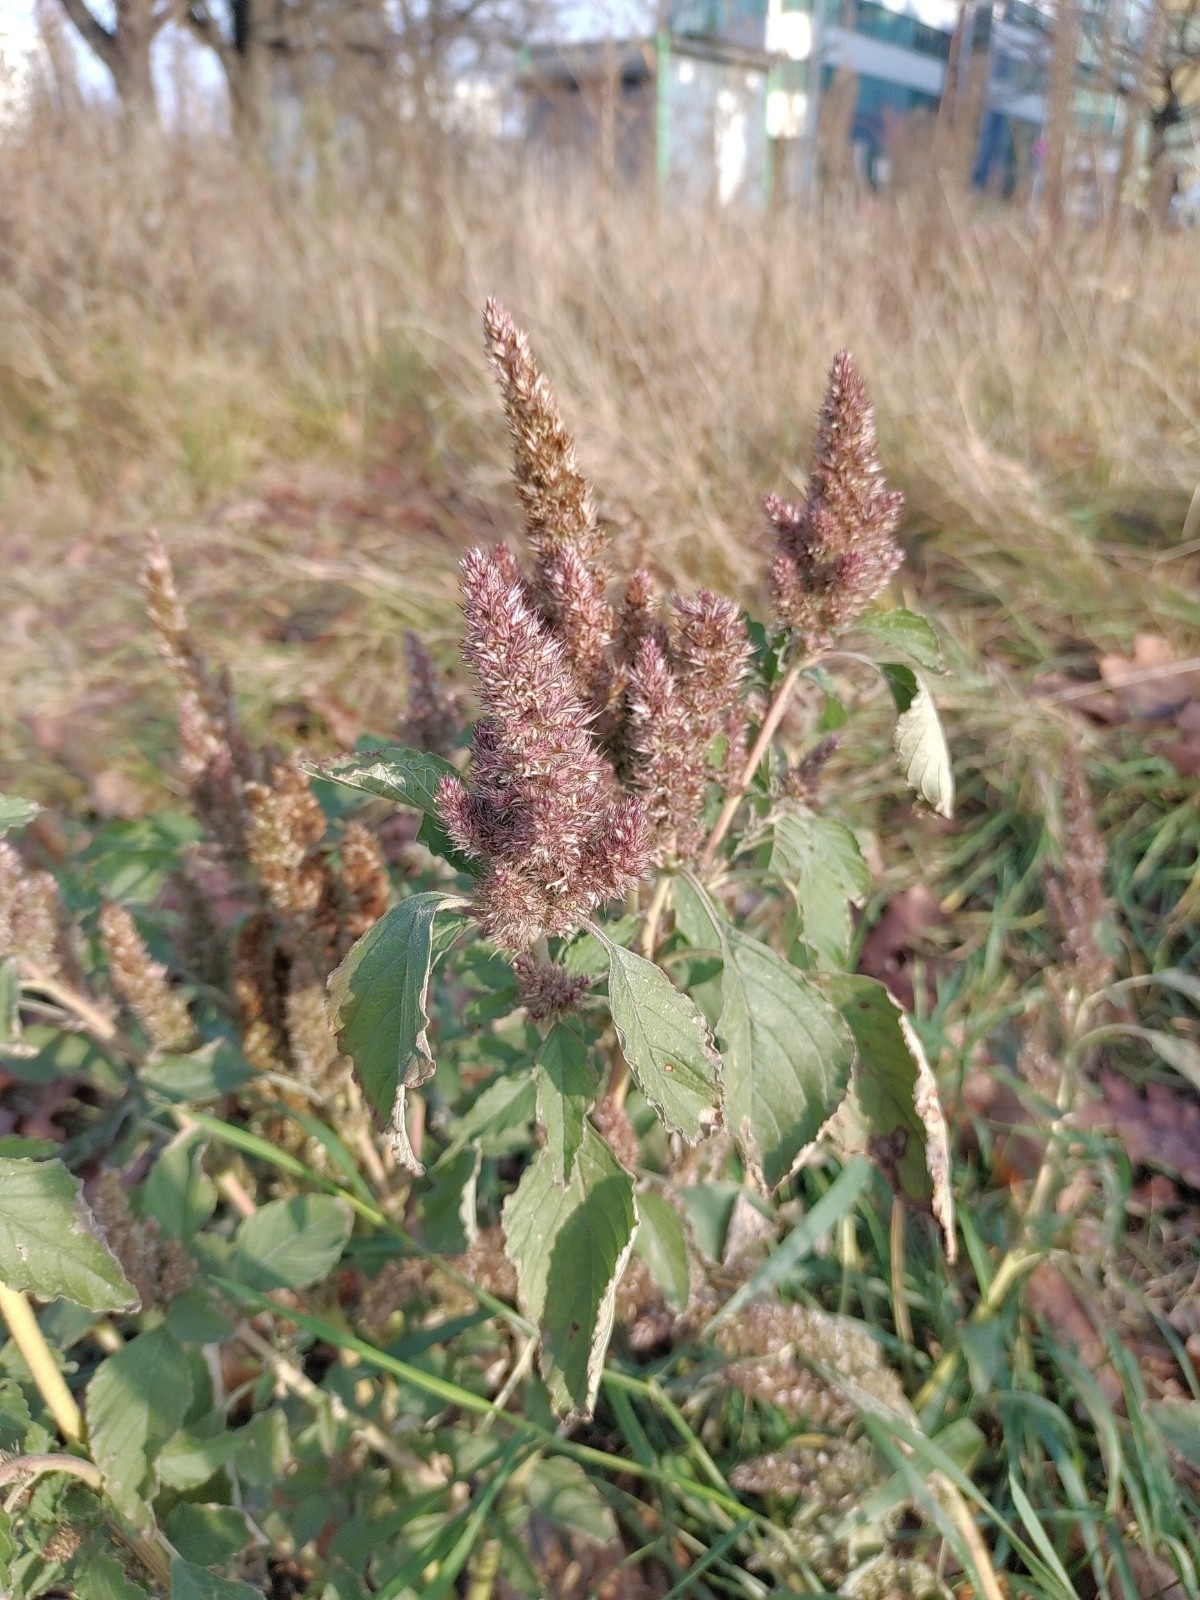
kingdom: Plantae
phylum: Tracheophyta
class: Magnoliopsida
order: Caryophyllales
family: Amaranthaceae
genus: Amaranthus
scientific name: Amaranthus retroflexus
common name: Redroot amaranth
